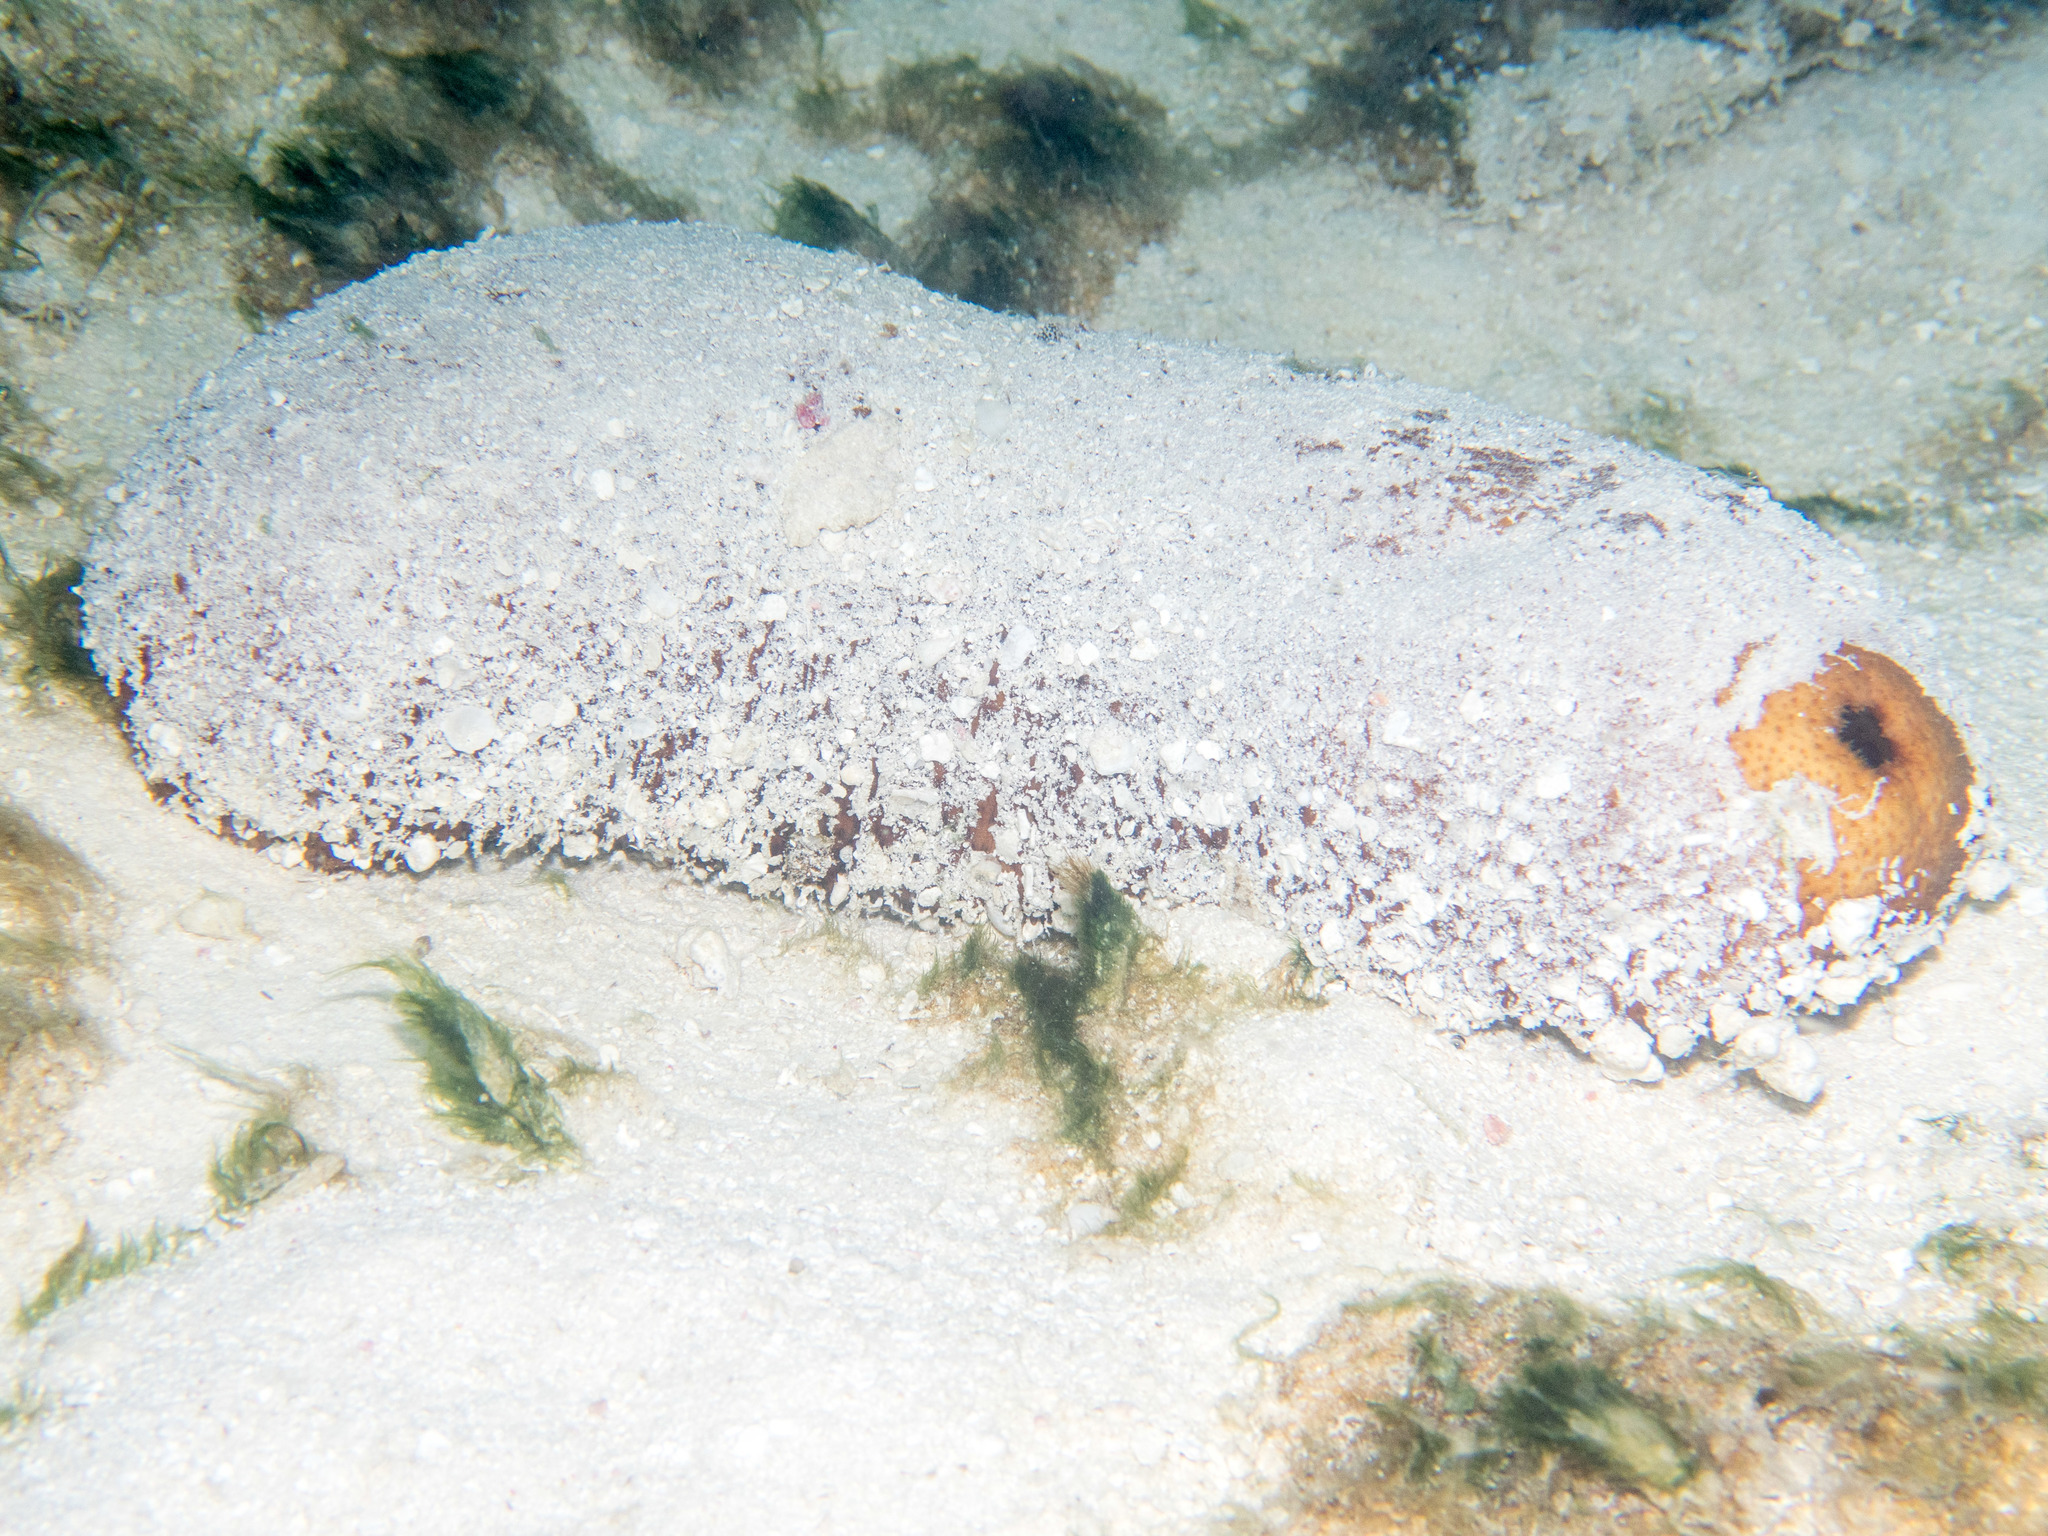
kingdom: Animalia
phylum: Echinodermata
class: Holothuroidea
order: Holothuriida
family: Holothuriidae
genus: Bohadschia
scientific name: Bohadschia vitiensis
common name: Brown sandfish
